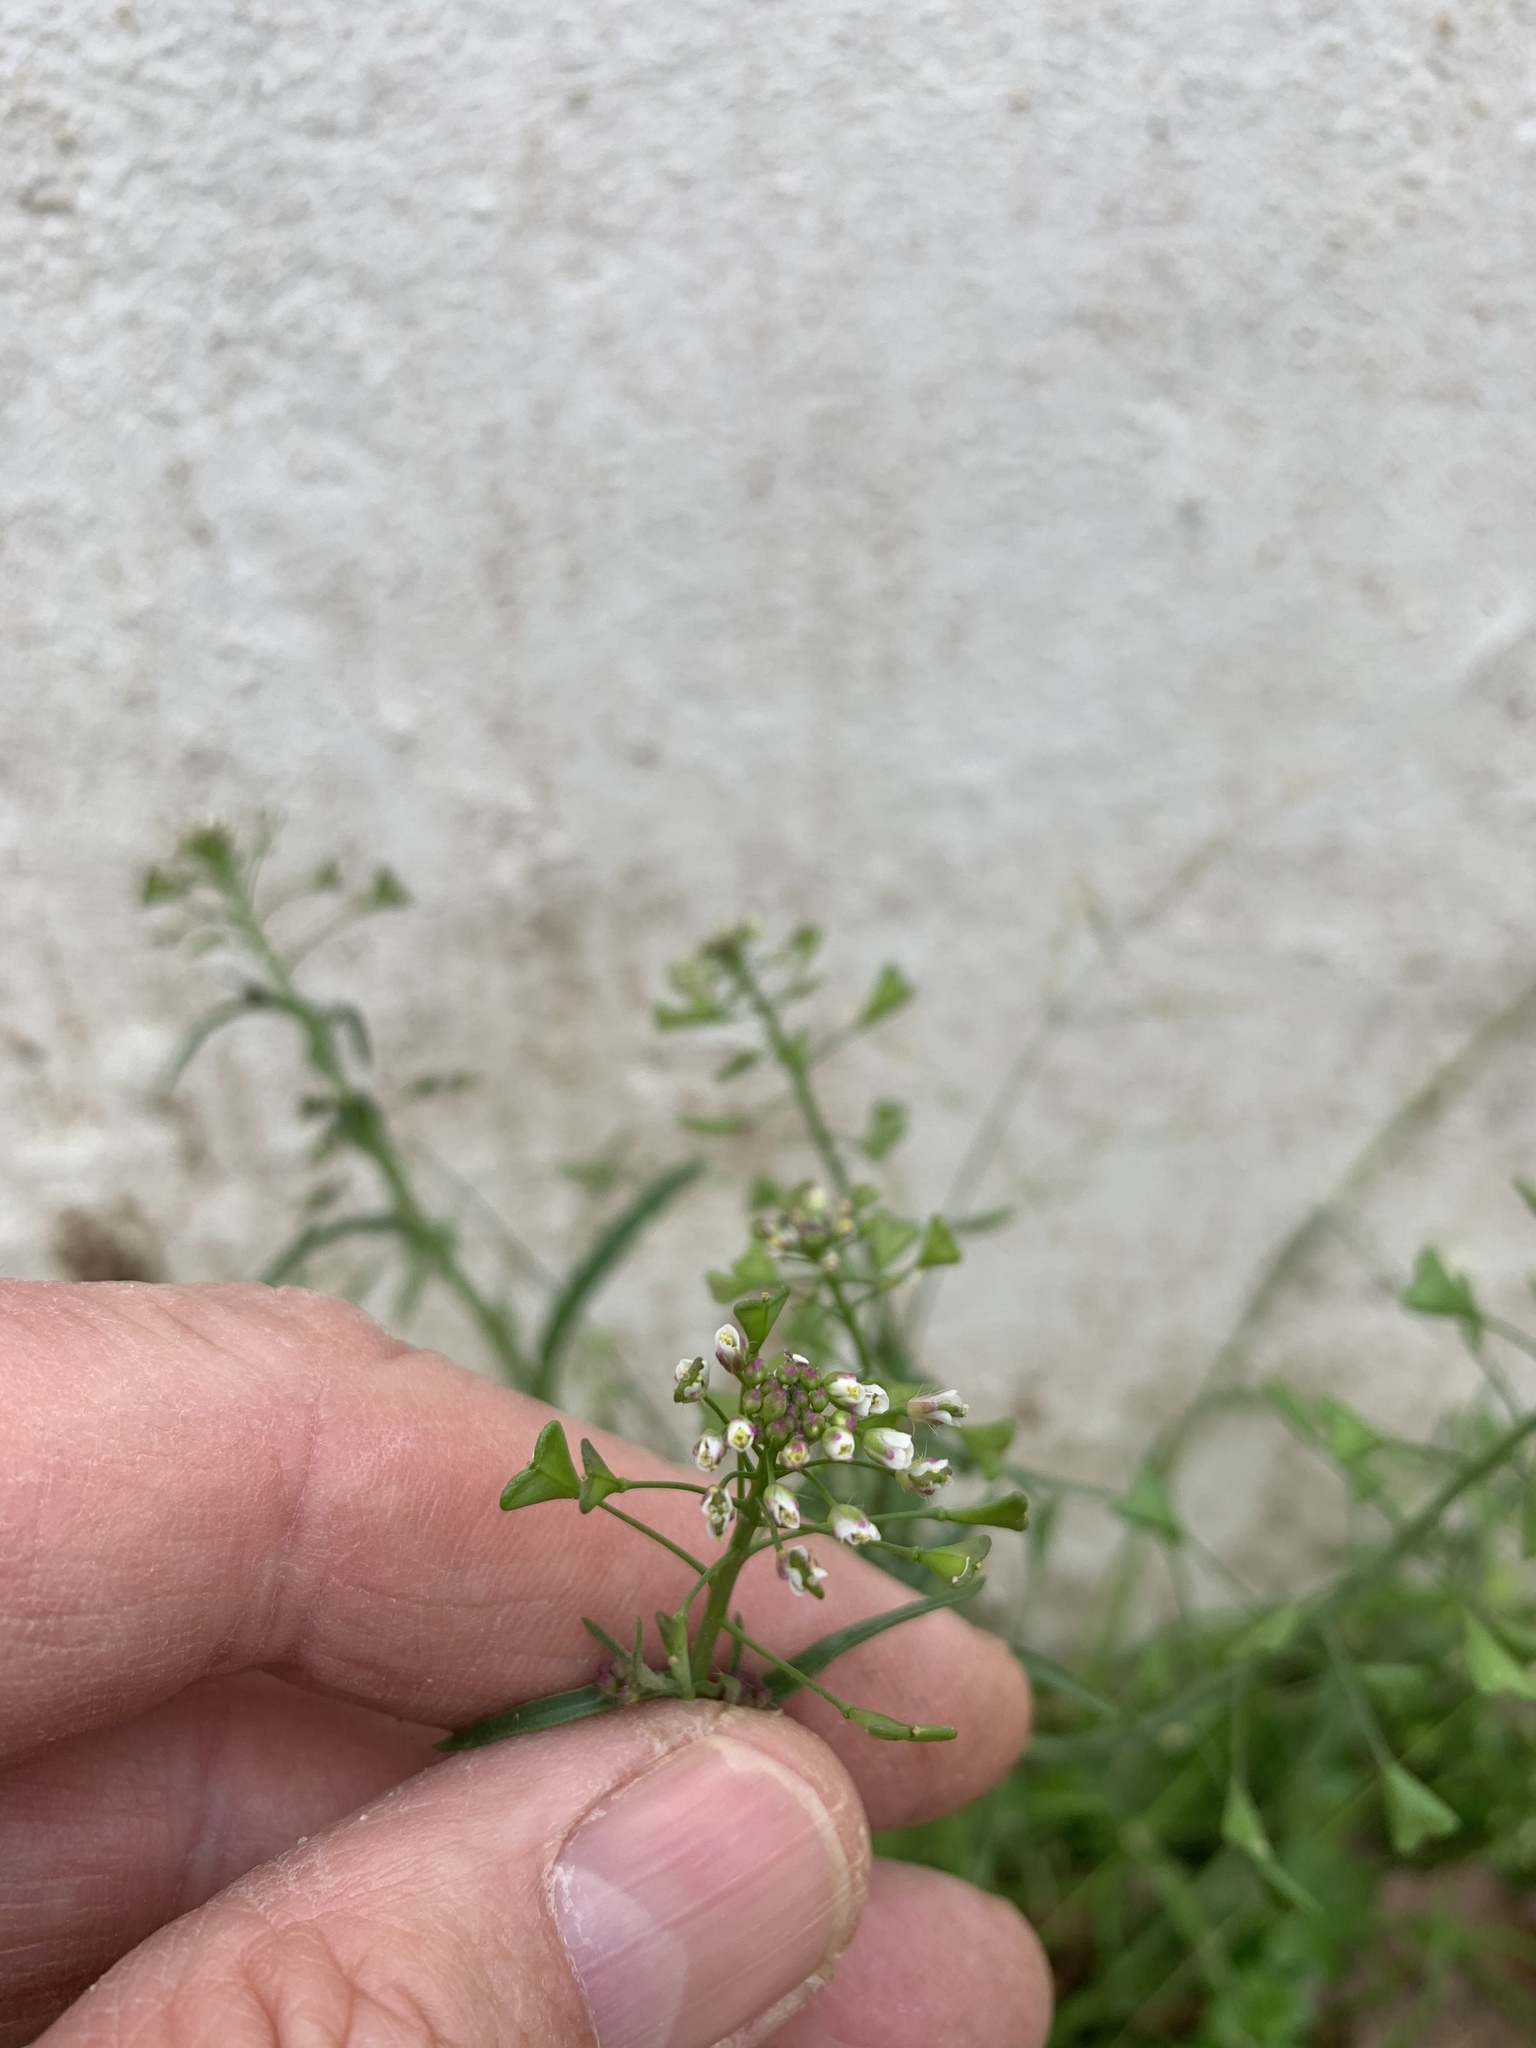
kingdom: Plantae
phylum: Tracheophyta
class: Magnoliopsida
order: Brassicales
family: Brassicaceae
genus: Capsella
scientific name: Capsella bursa-pastoris
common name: Shepherd's purse
